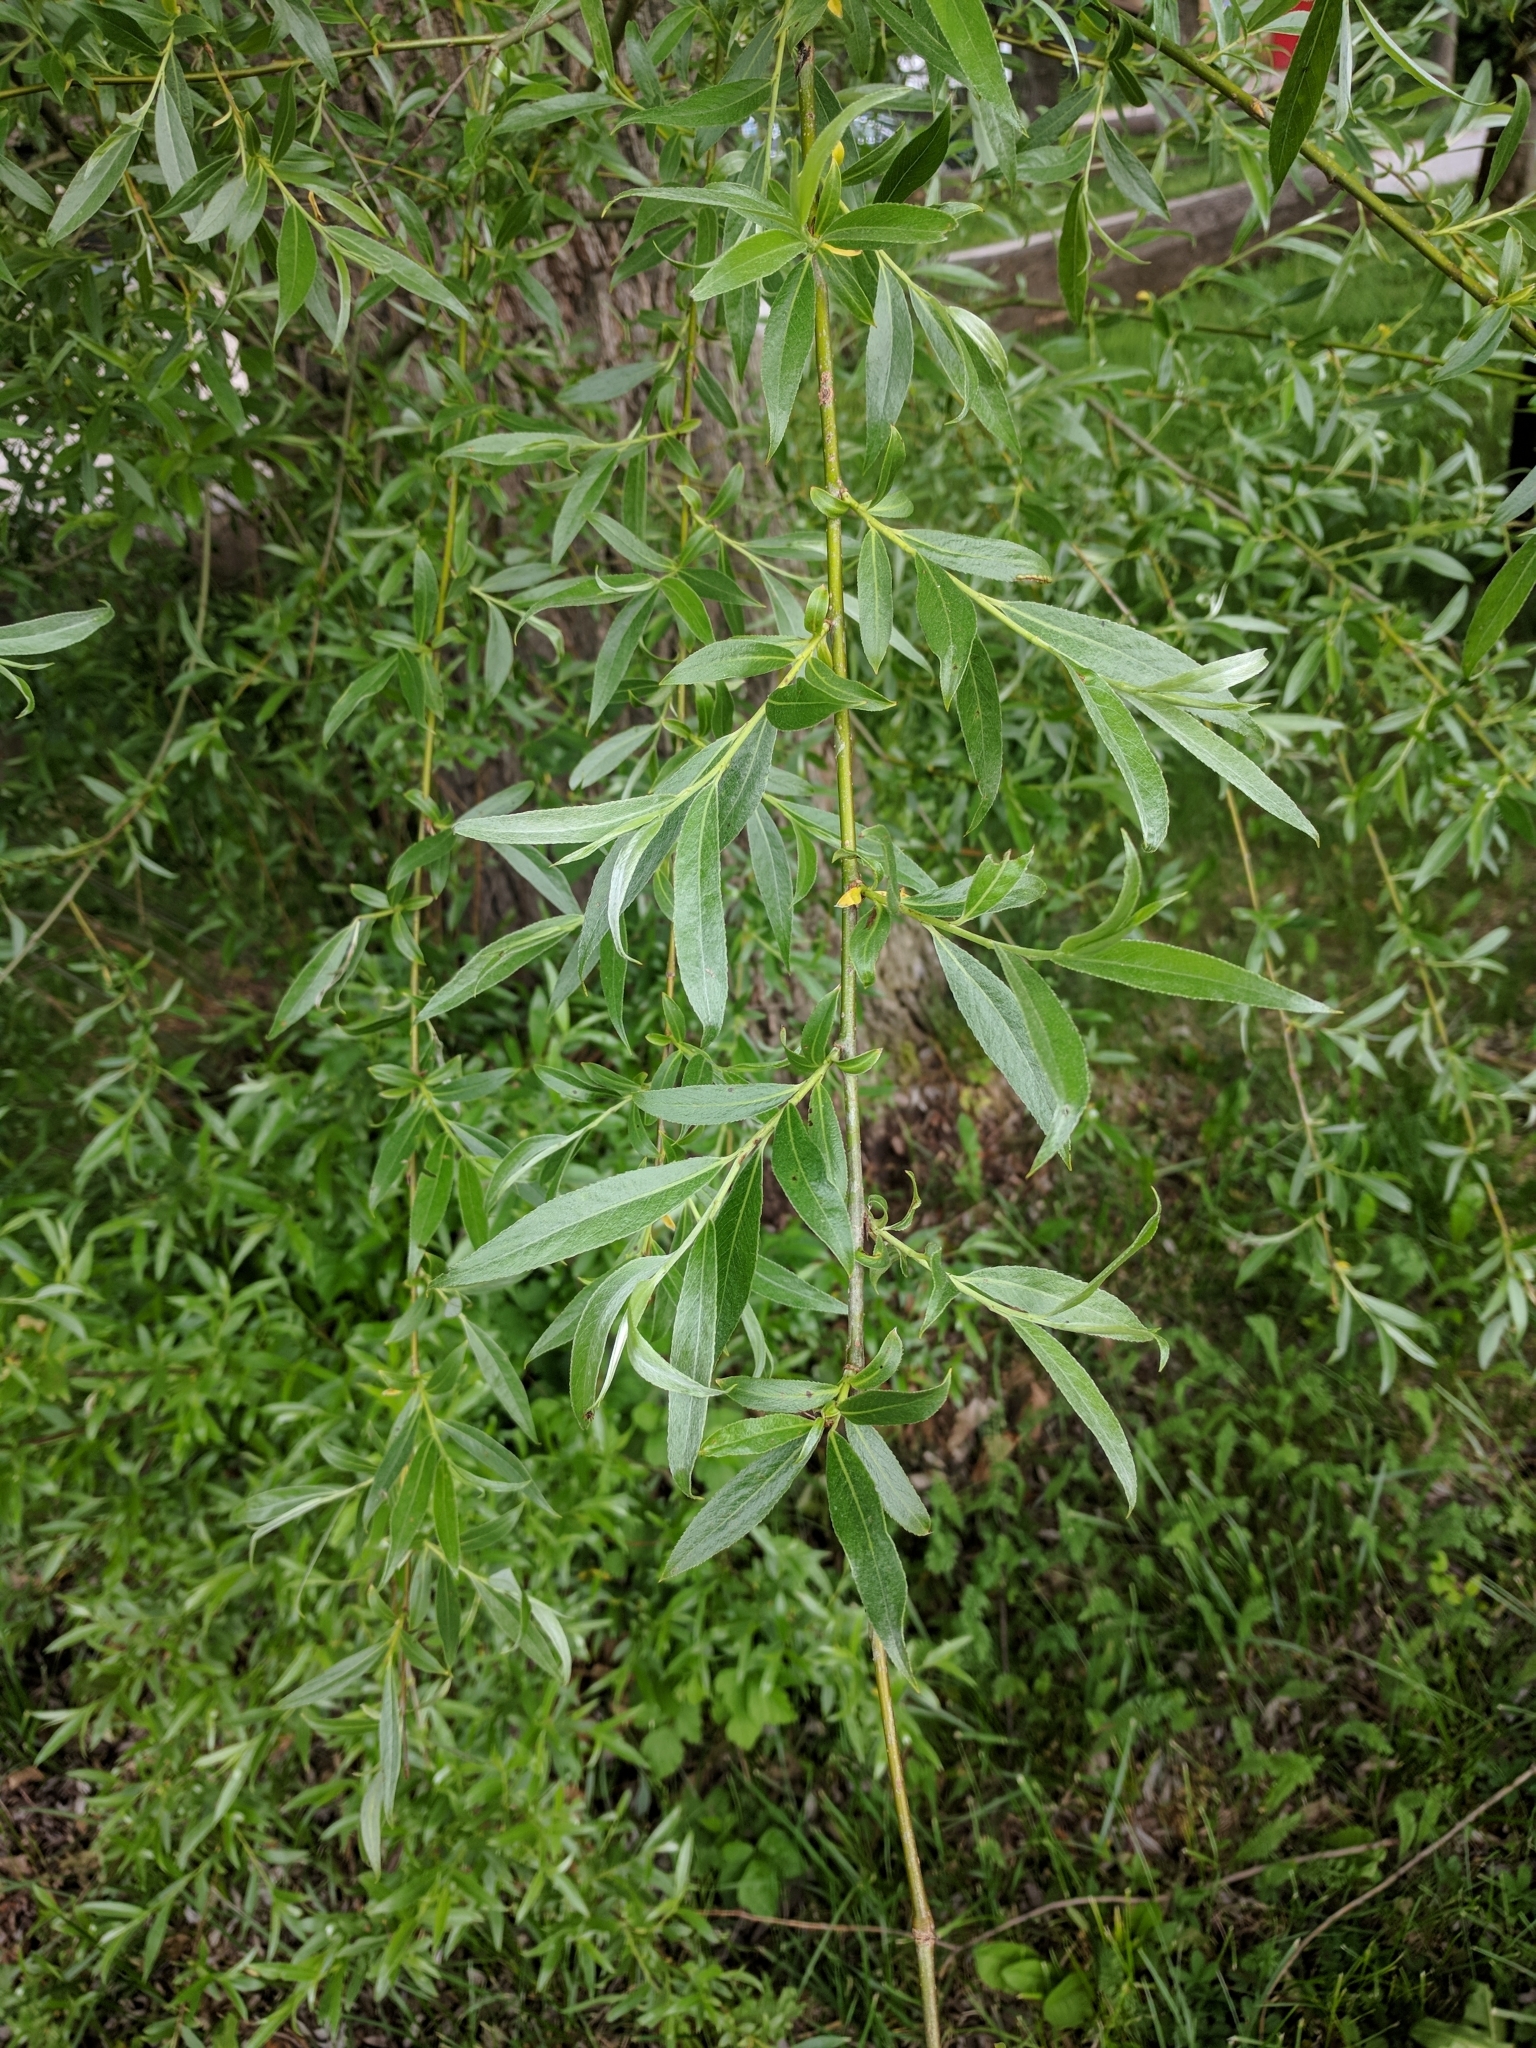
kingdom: Plantae
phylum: Tracheophyta
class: Magnoliopsida
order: Malpighiales
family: Salicaceae
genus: Salix
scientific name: Salix alba
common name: White willow
